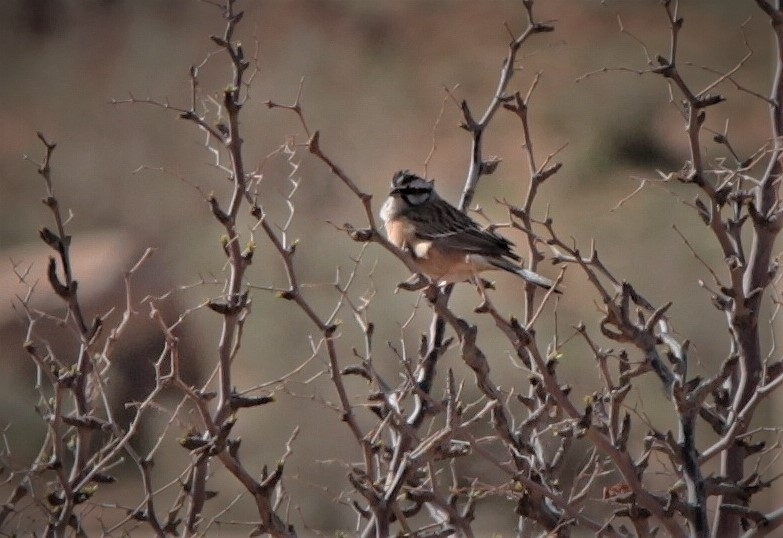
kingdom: Animalia
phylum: Chordata
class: Aves
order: Passeriformes
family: Emberizidae
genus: Emberiza
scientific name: Emberiza cia
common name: Rock bunting
